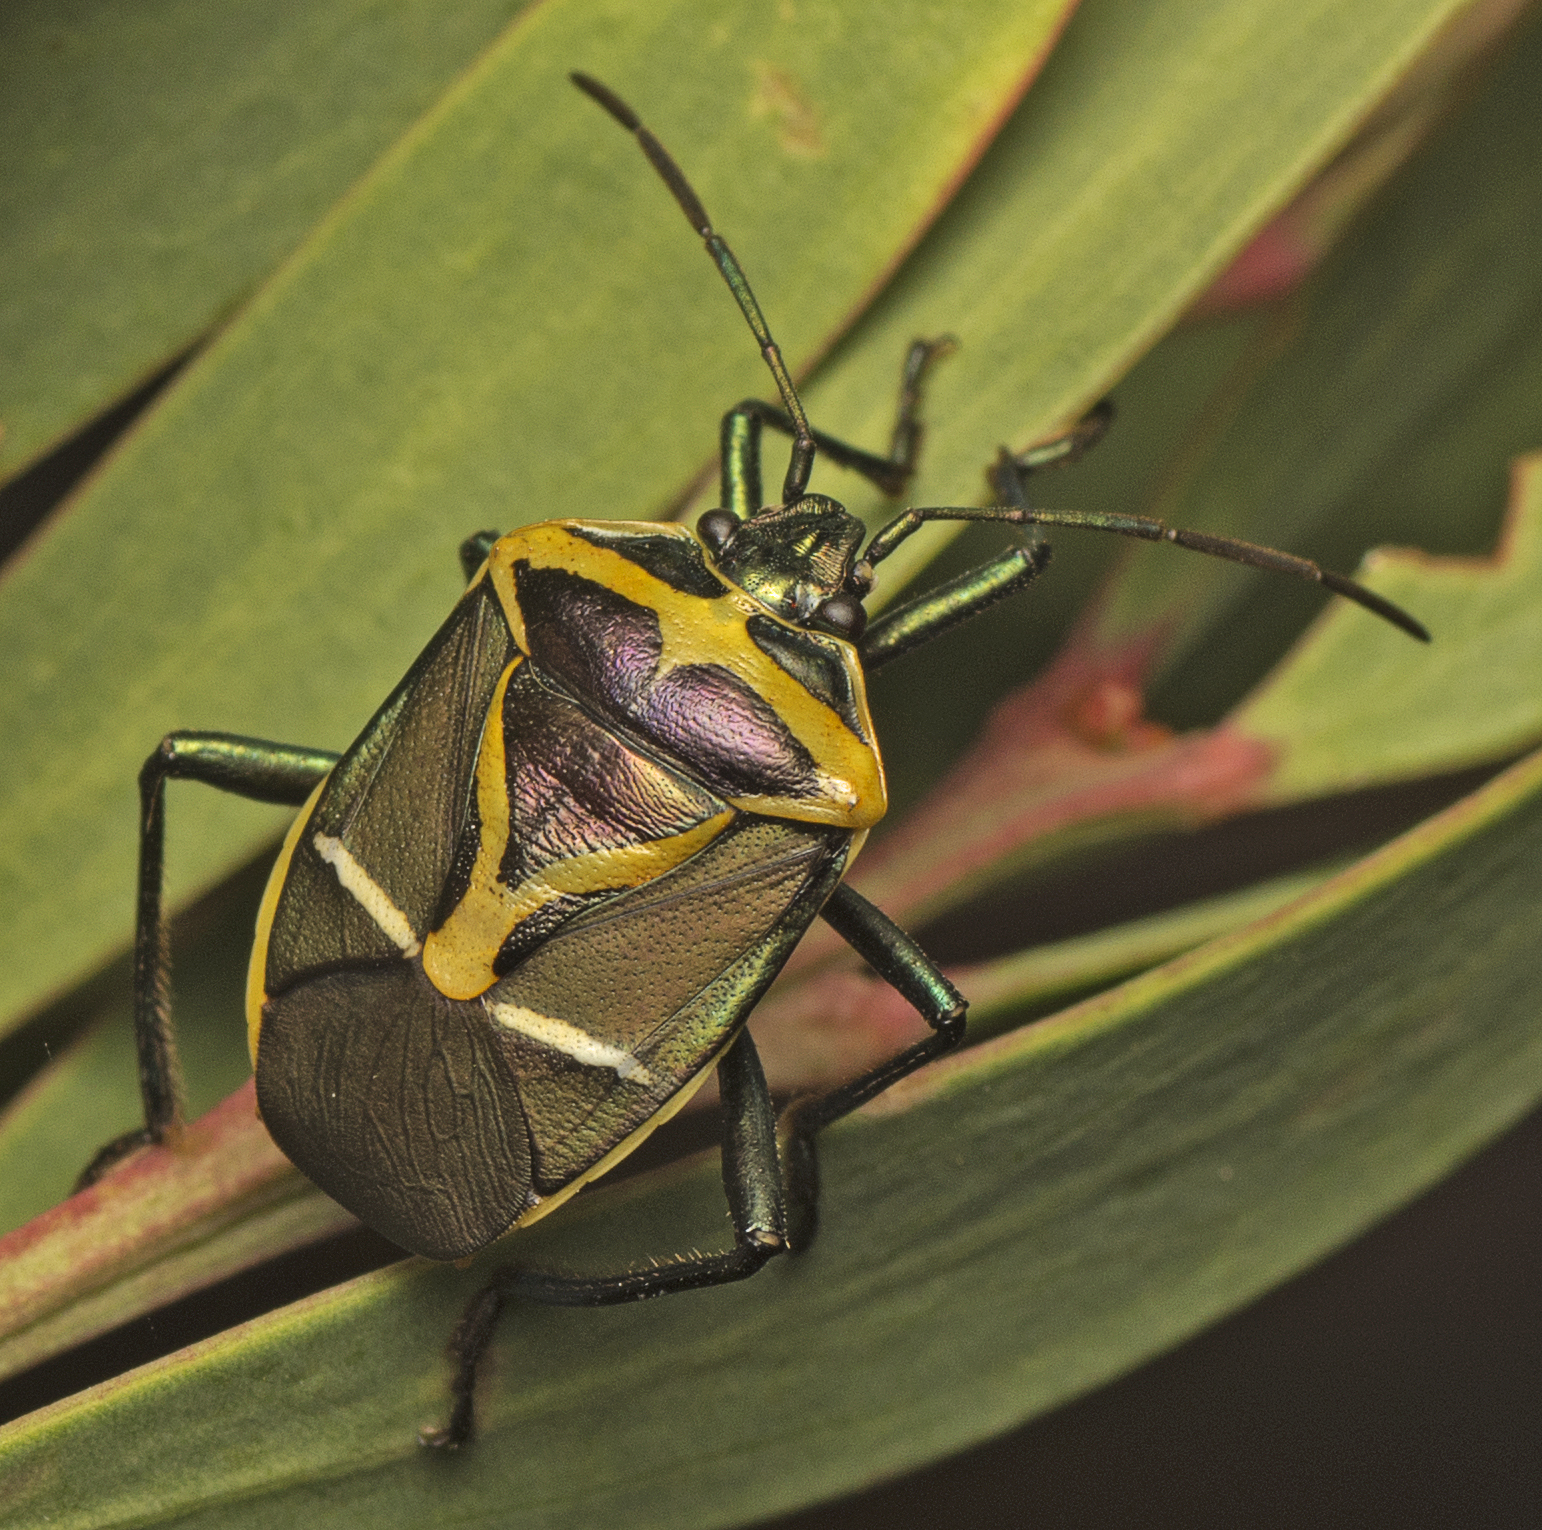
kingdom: Animalia
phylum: Arthropoda
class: Insecta
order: Hemiptera
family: Pentatomidae
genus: Commius
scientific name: Commius
